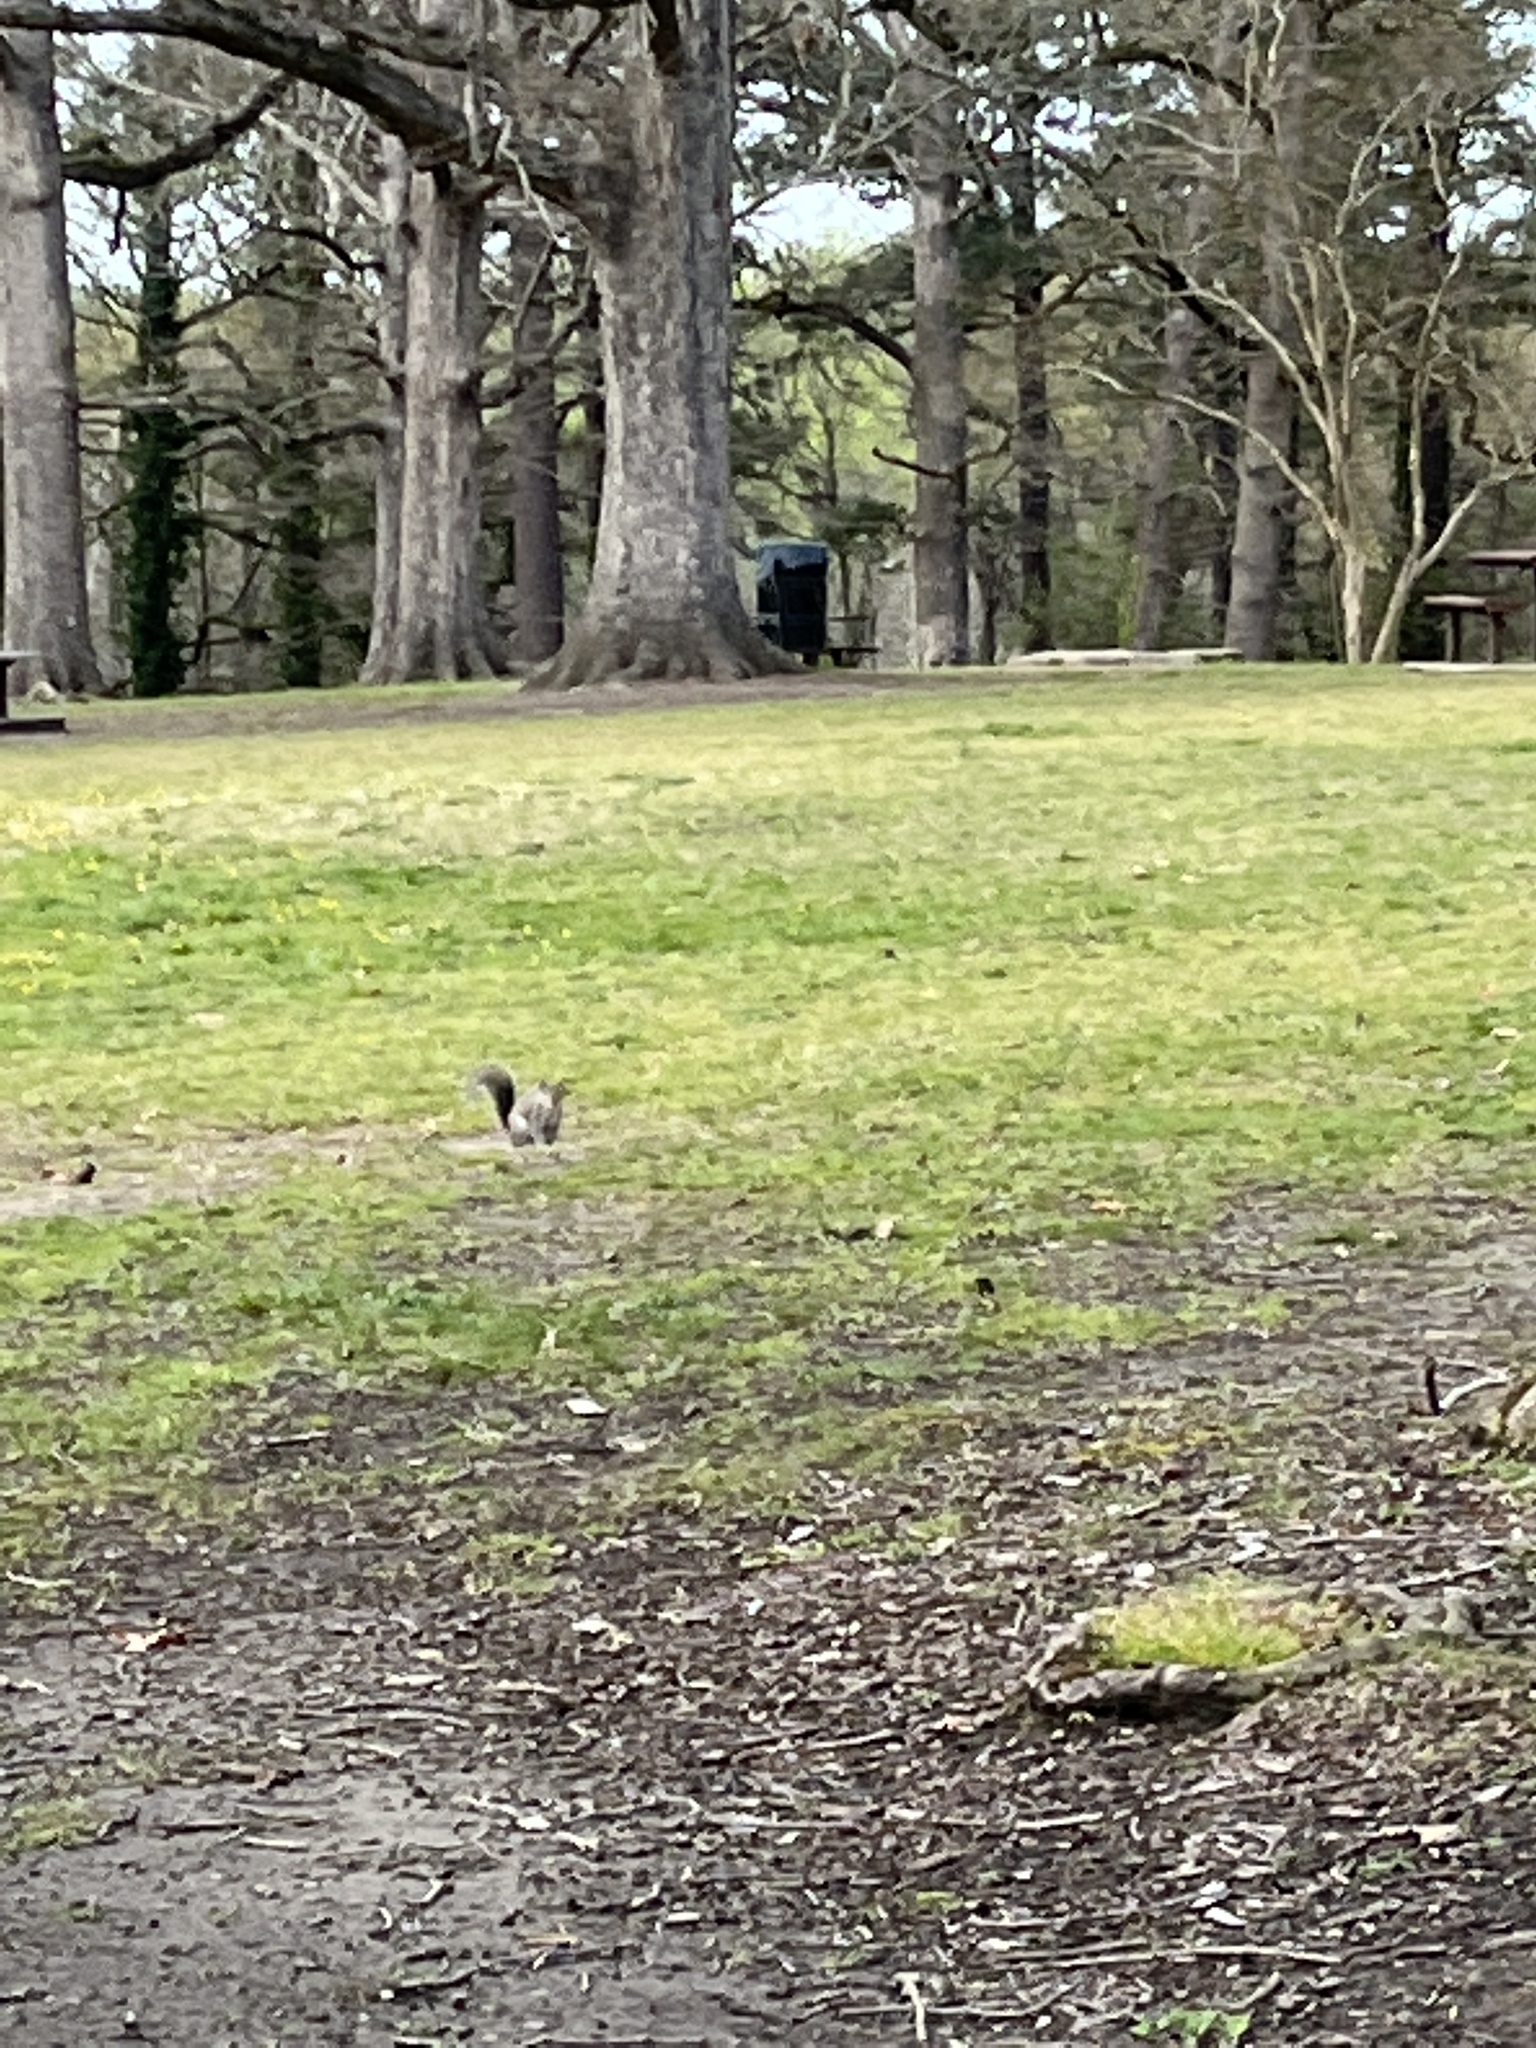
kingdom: Animalia
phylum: Chordata
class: Mammalia
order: Rodentia
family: Sciuridae
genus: Sciurus
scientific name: Sciurus carolinensis
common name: Eastern gray squirrel
